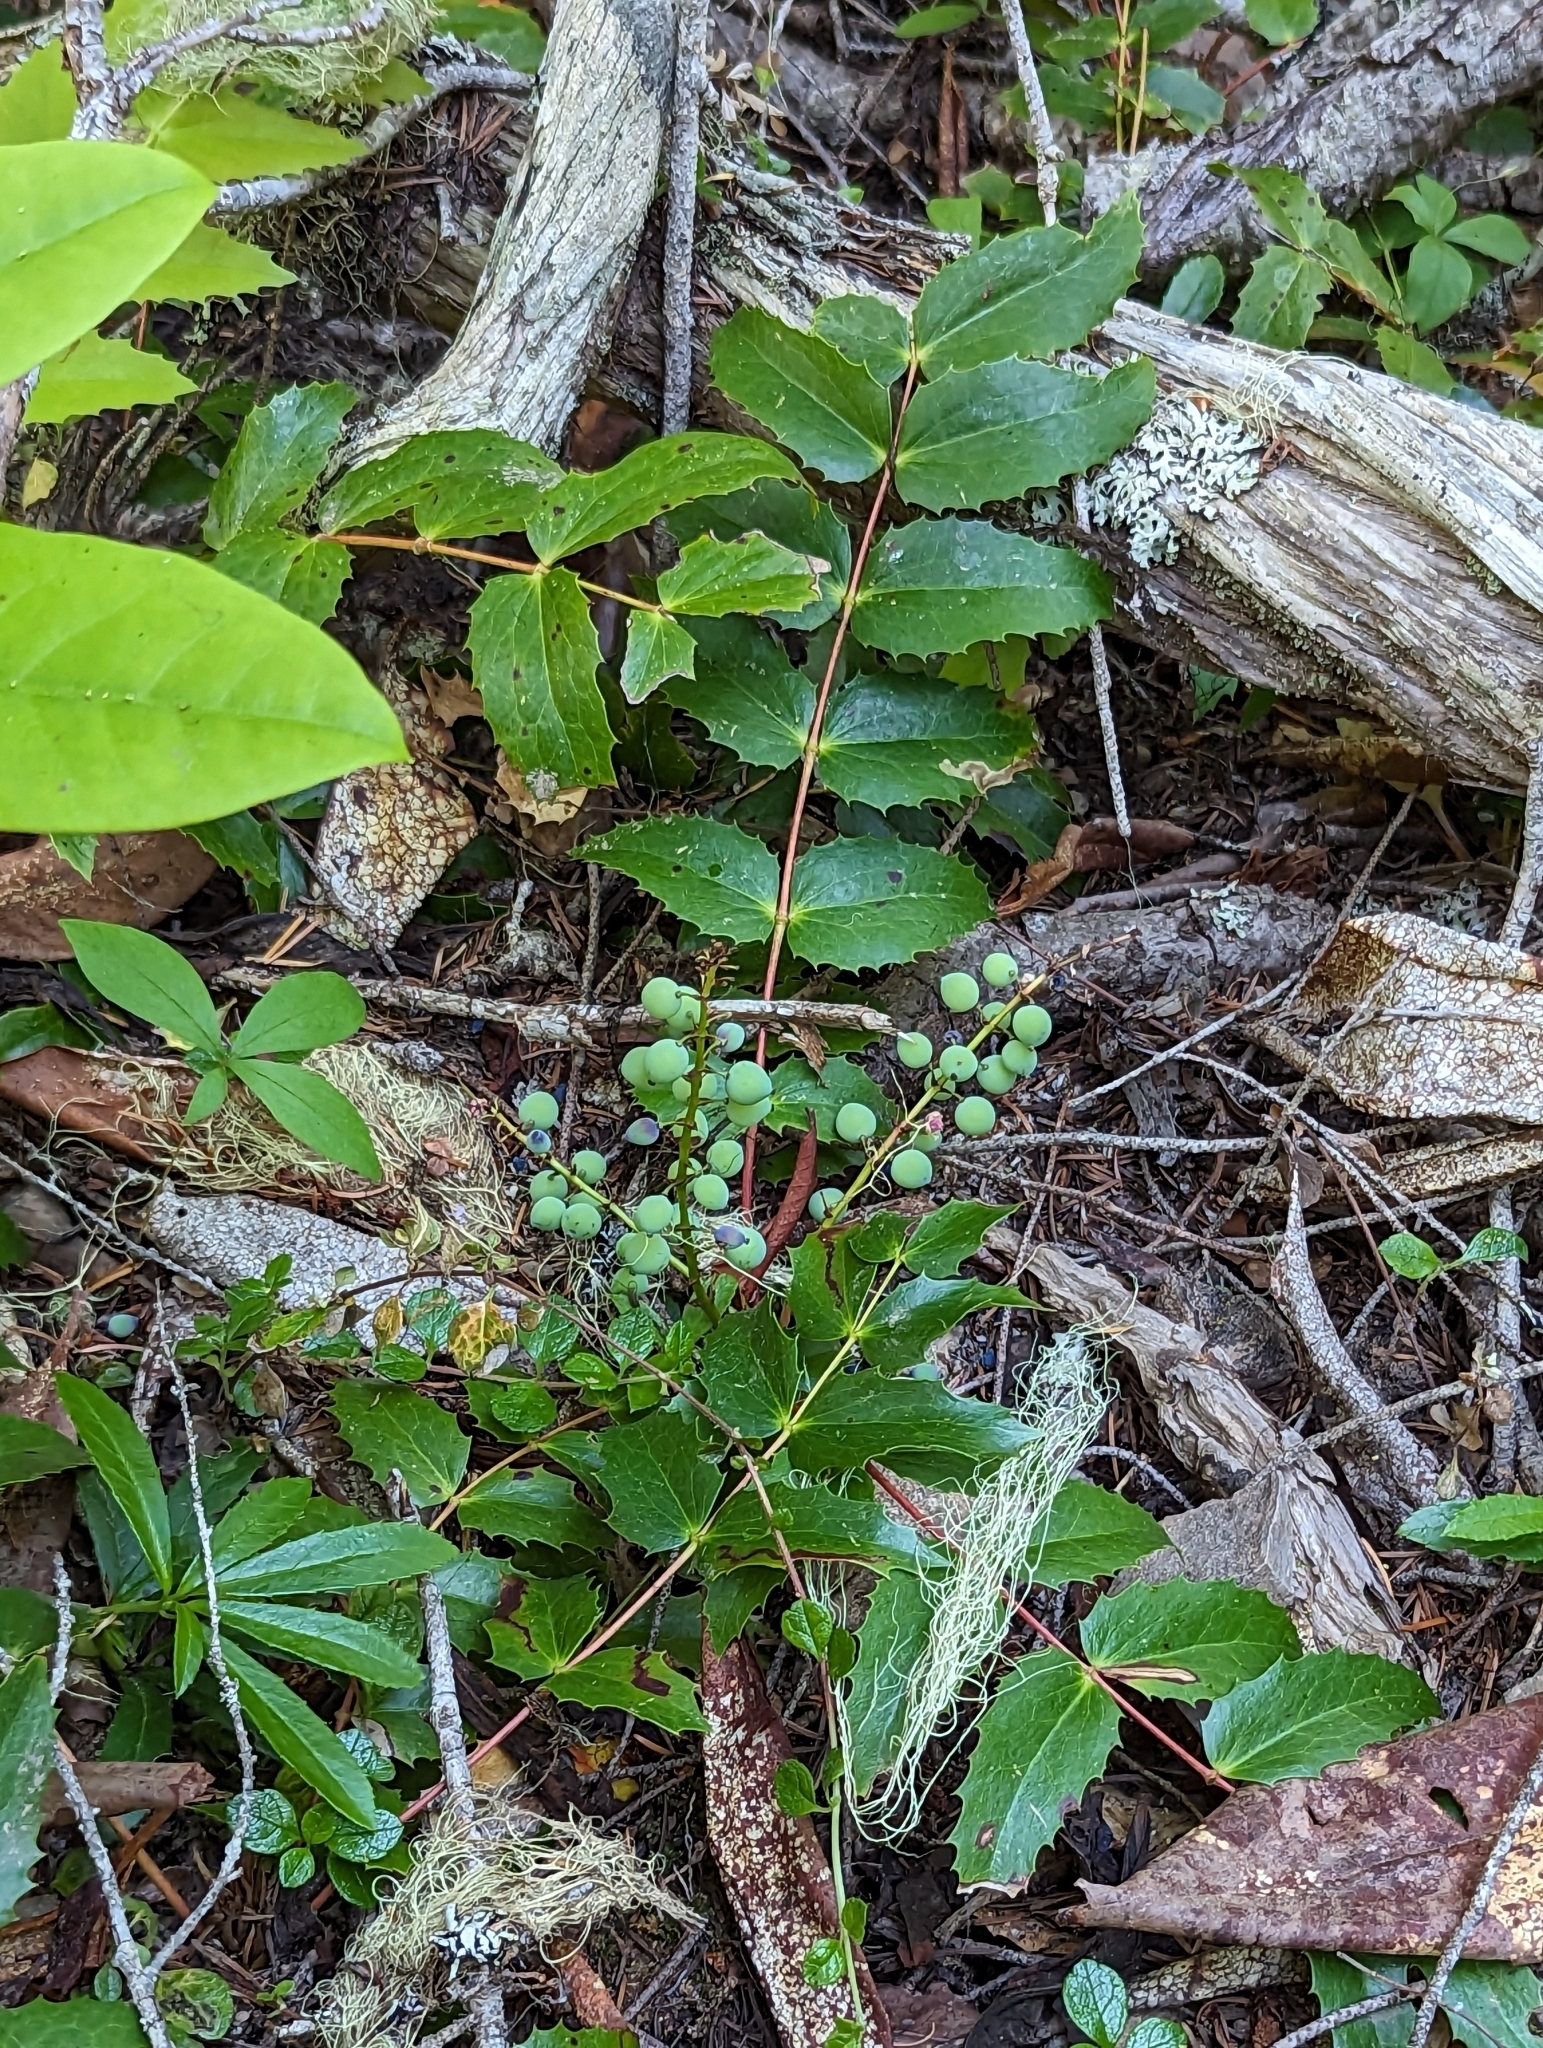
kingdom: Plantae
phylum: Tracheophyta
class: Magnoliopsida
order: Ranunculales
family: Berberidaceae
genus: Mahonia
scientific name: Mahonia nervosa
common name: Cascade oregon-grape
